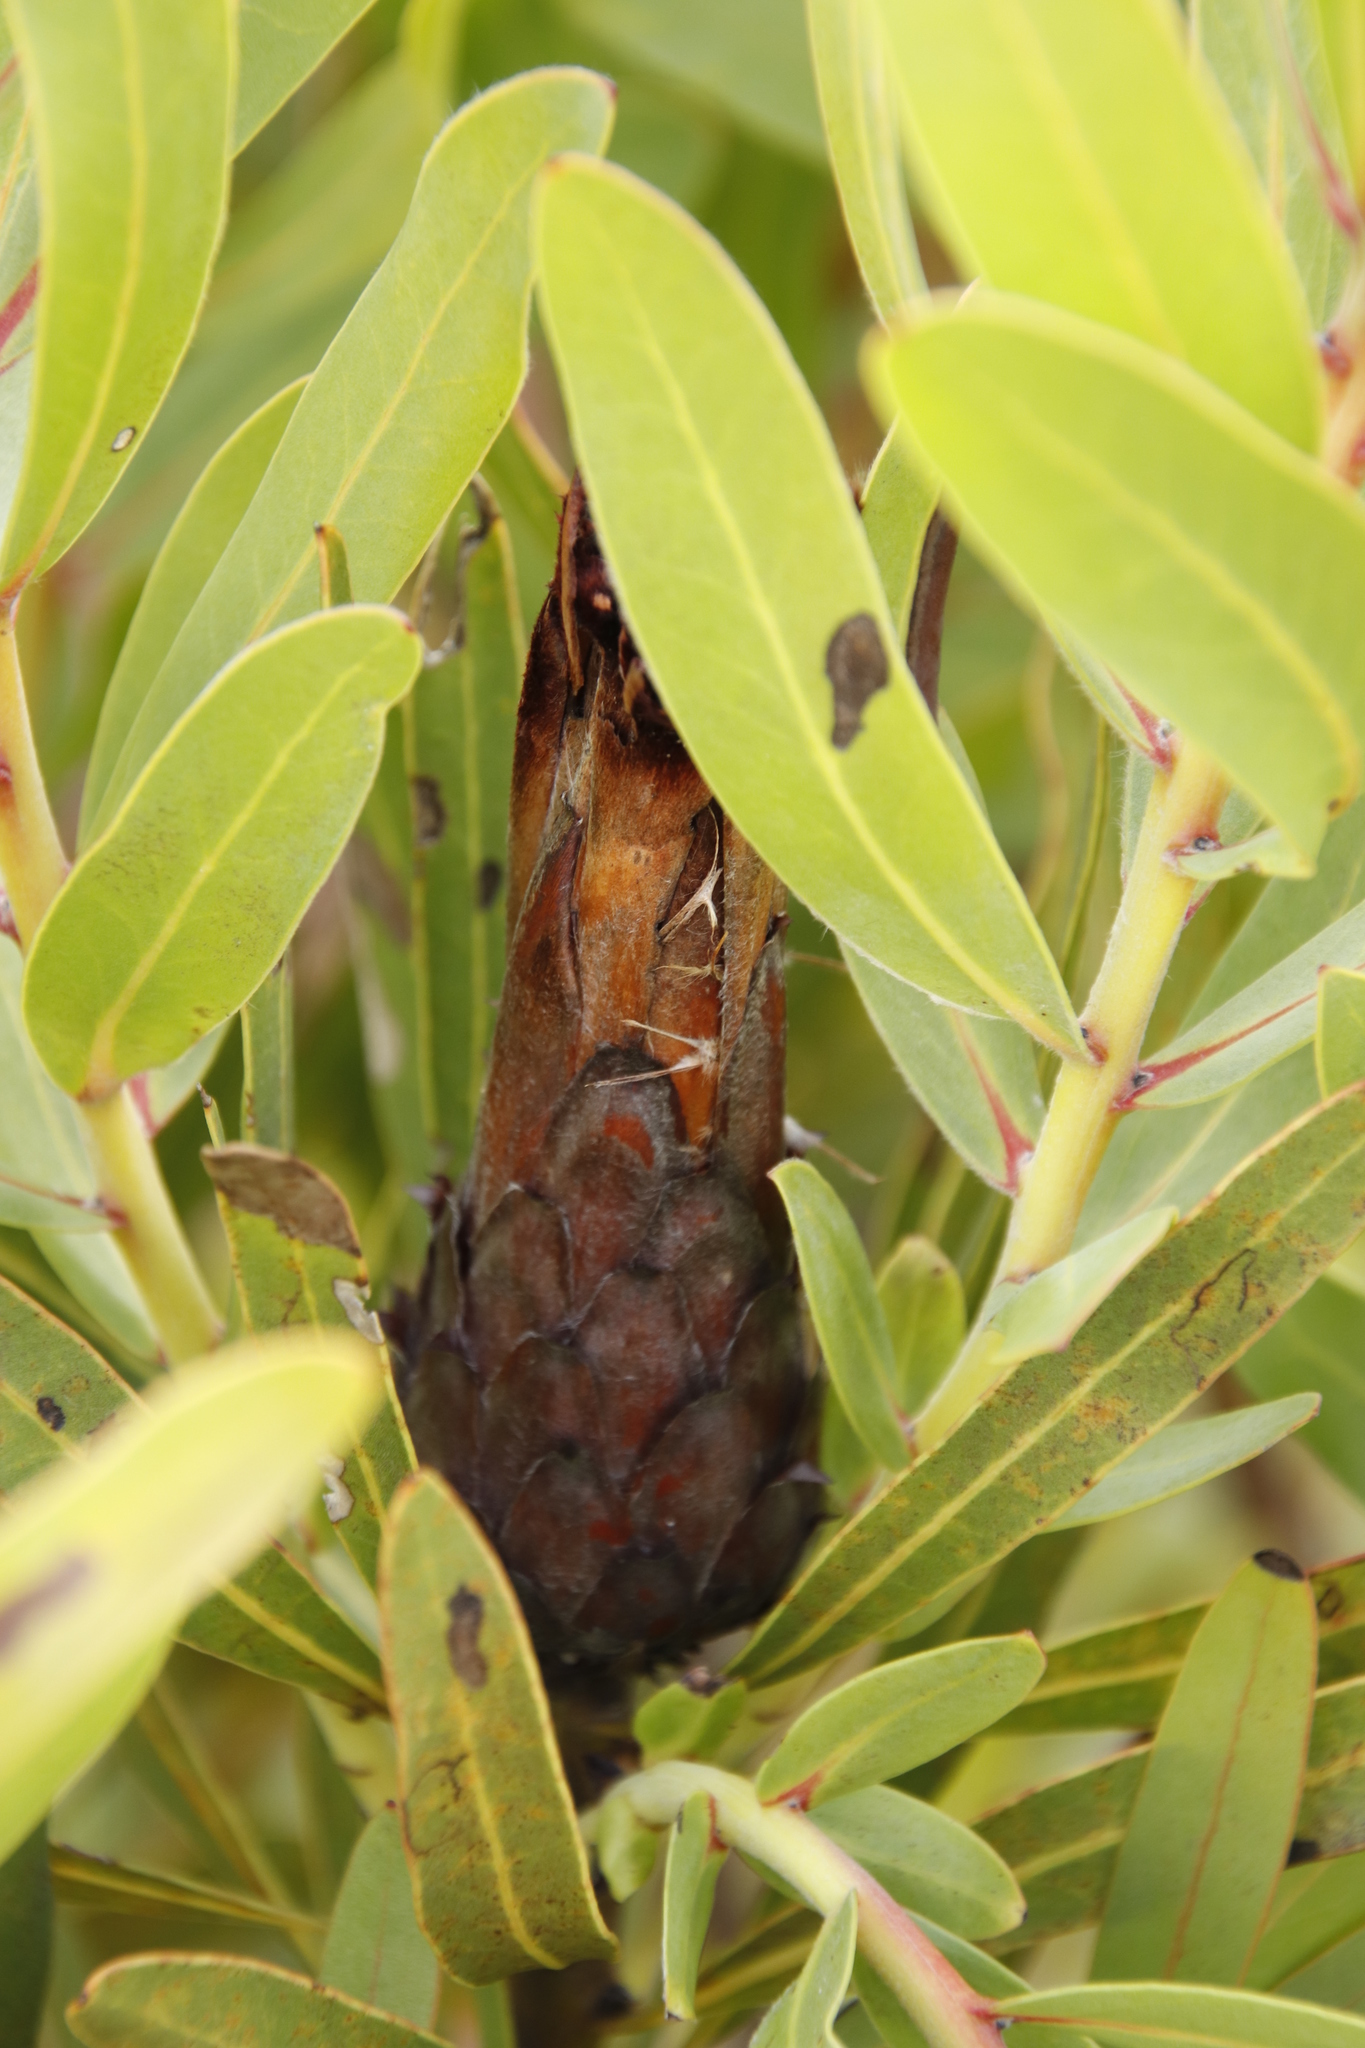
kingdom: Plantae
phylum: Tracheophyta
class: Magnoliopsida
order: Proteales
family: Proteaceae
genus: Protea
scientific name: Protea lepidocarpodendron
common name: Black-bearded protea
